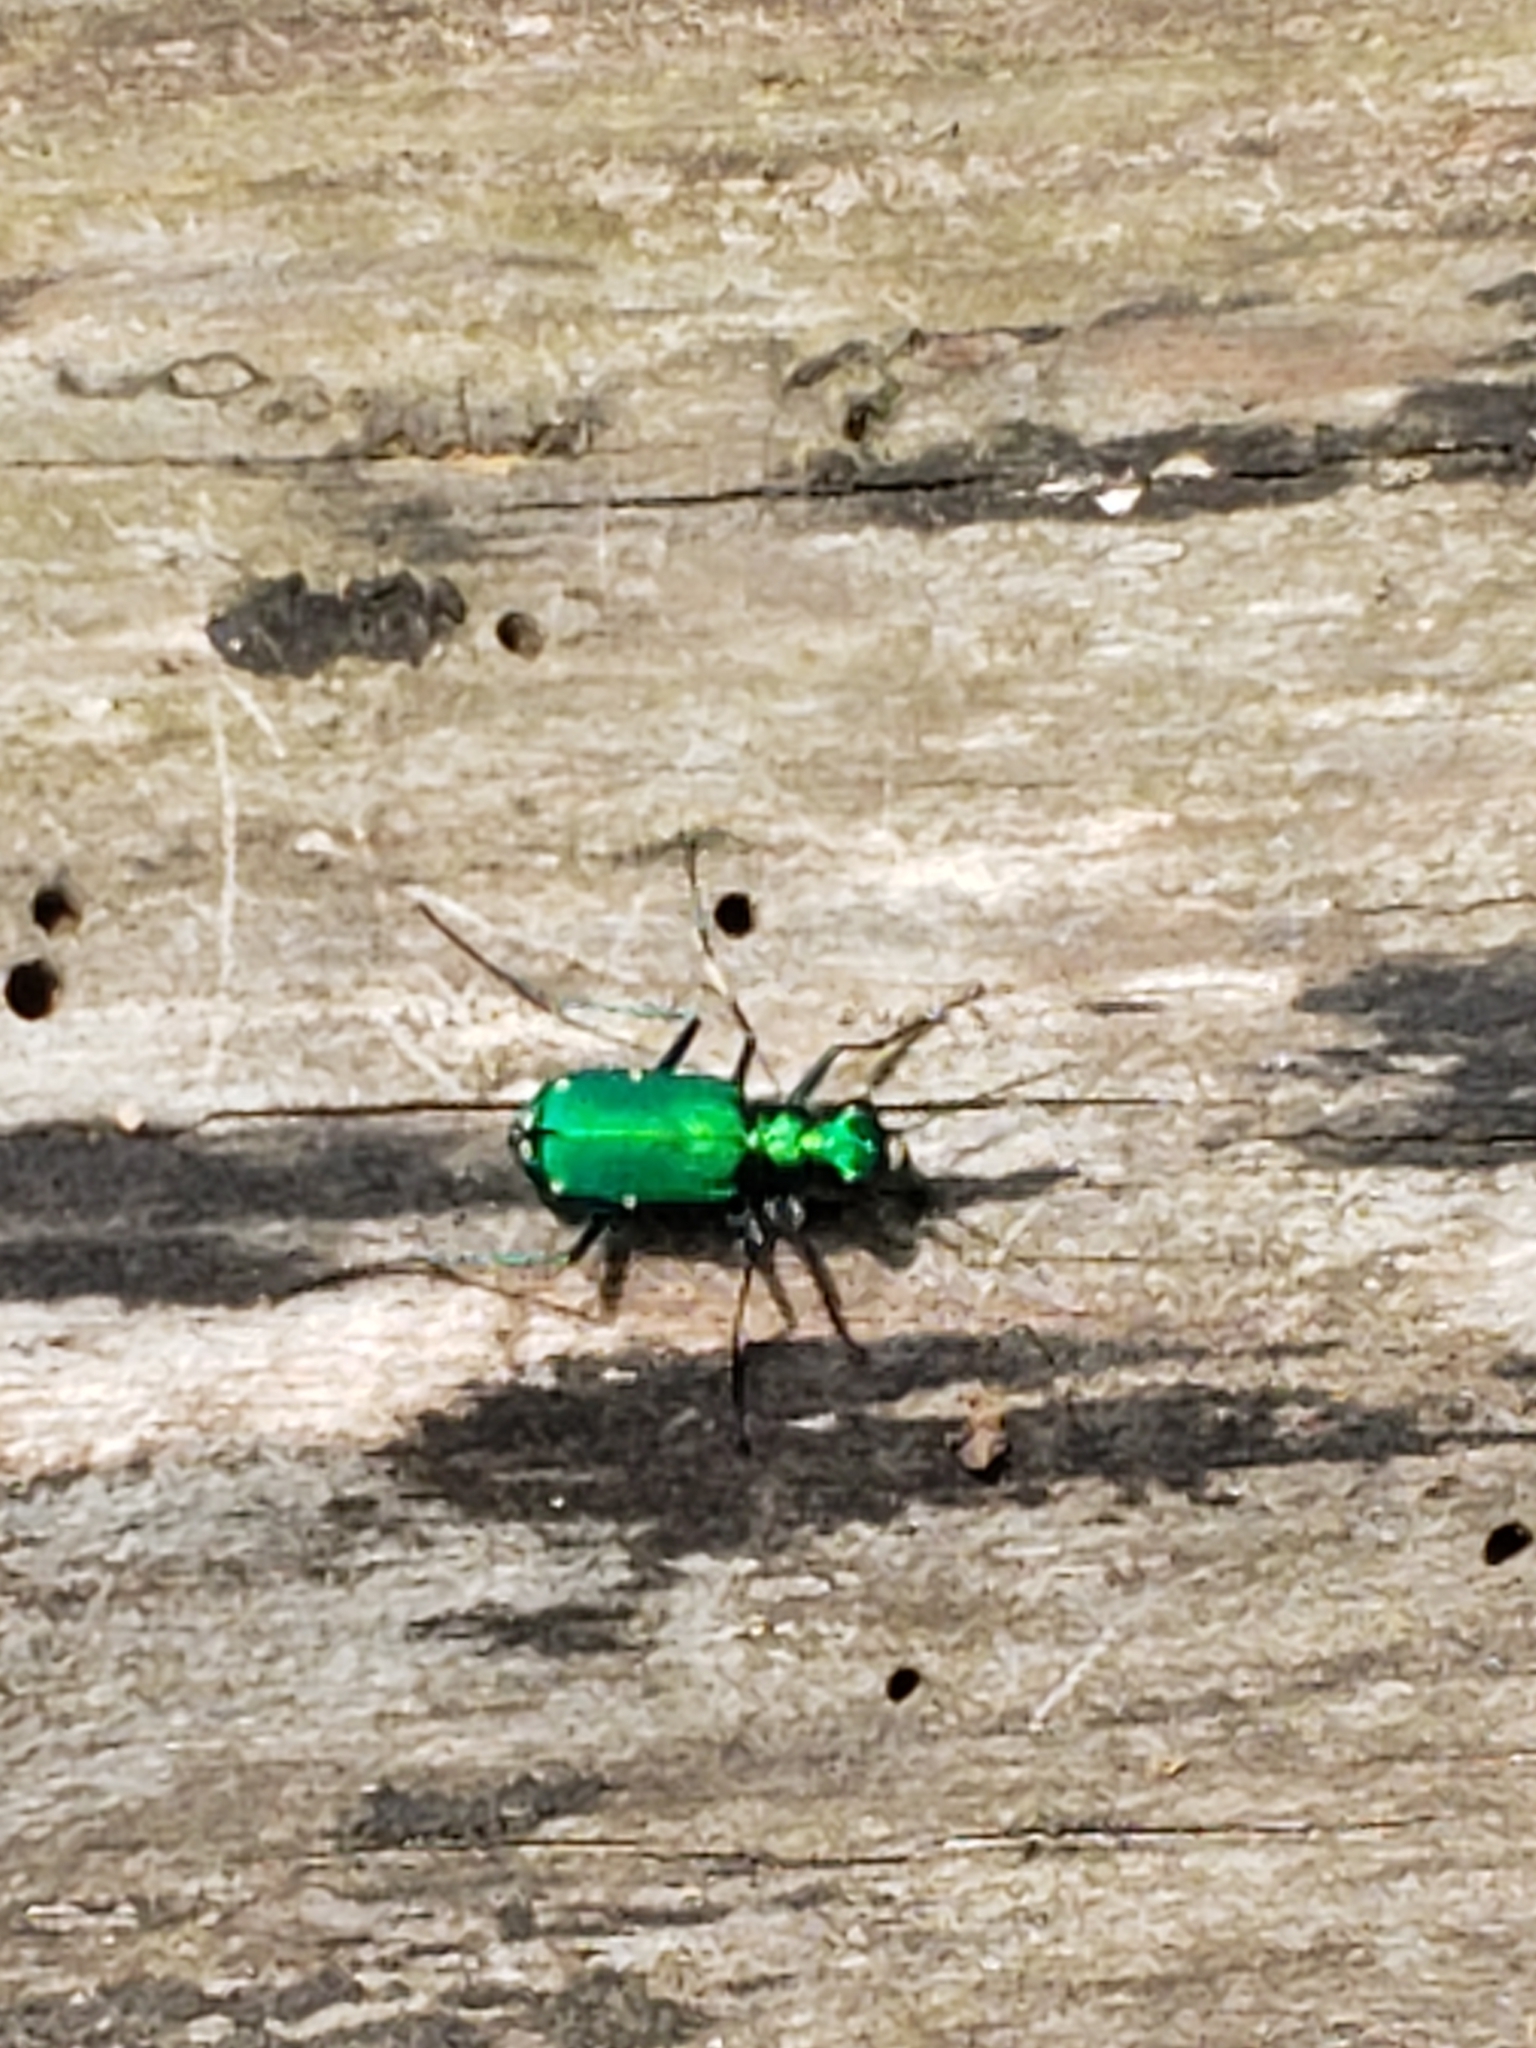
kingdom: Animalia
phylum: Arthropoda
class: Insecta
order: Coleoptera
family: Carabidae
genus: Cicindela
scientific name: Cicindela sexguttata
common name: Six-spotted tiger beetle
